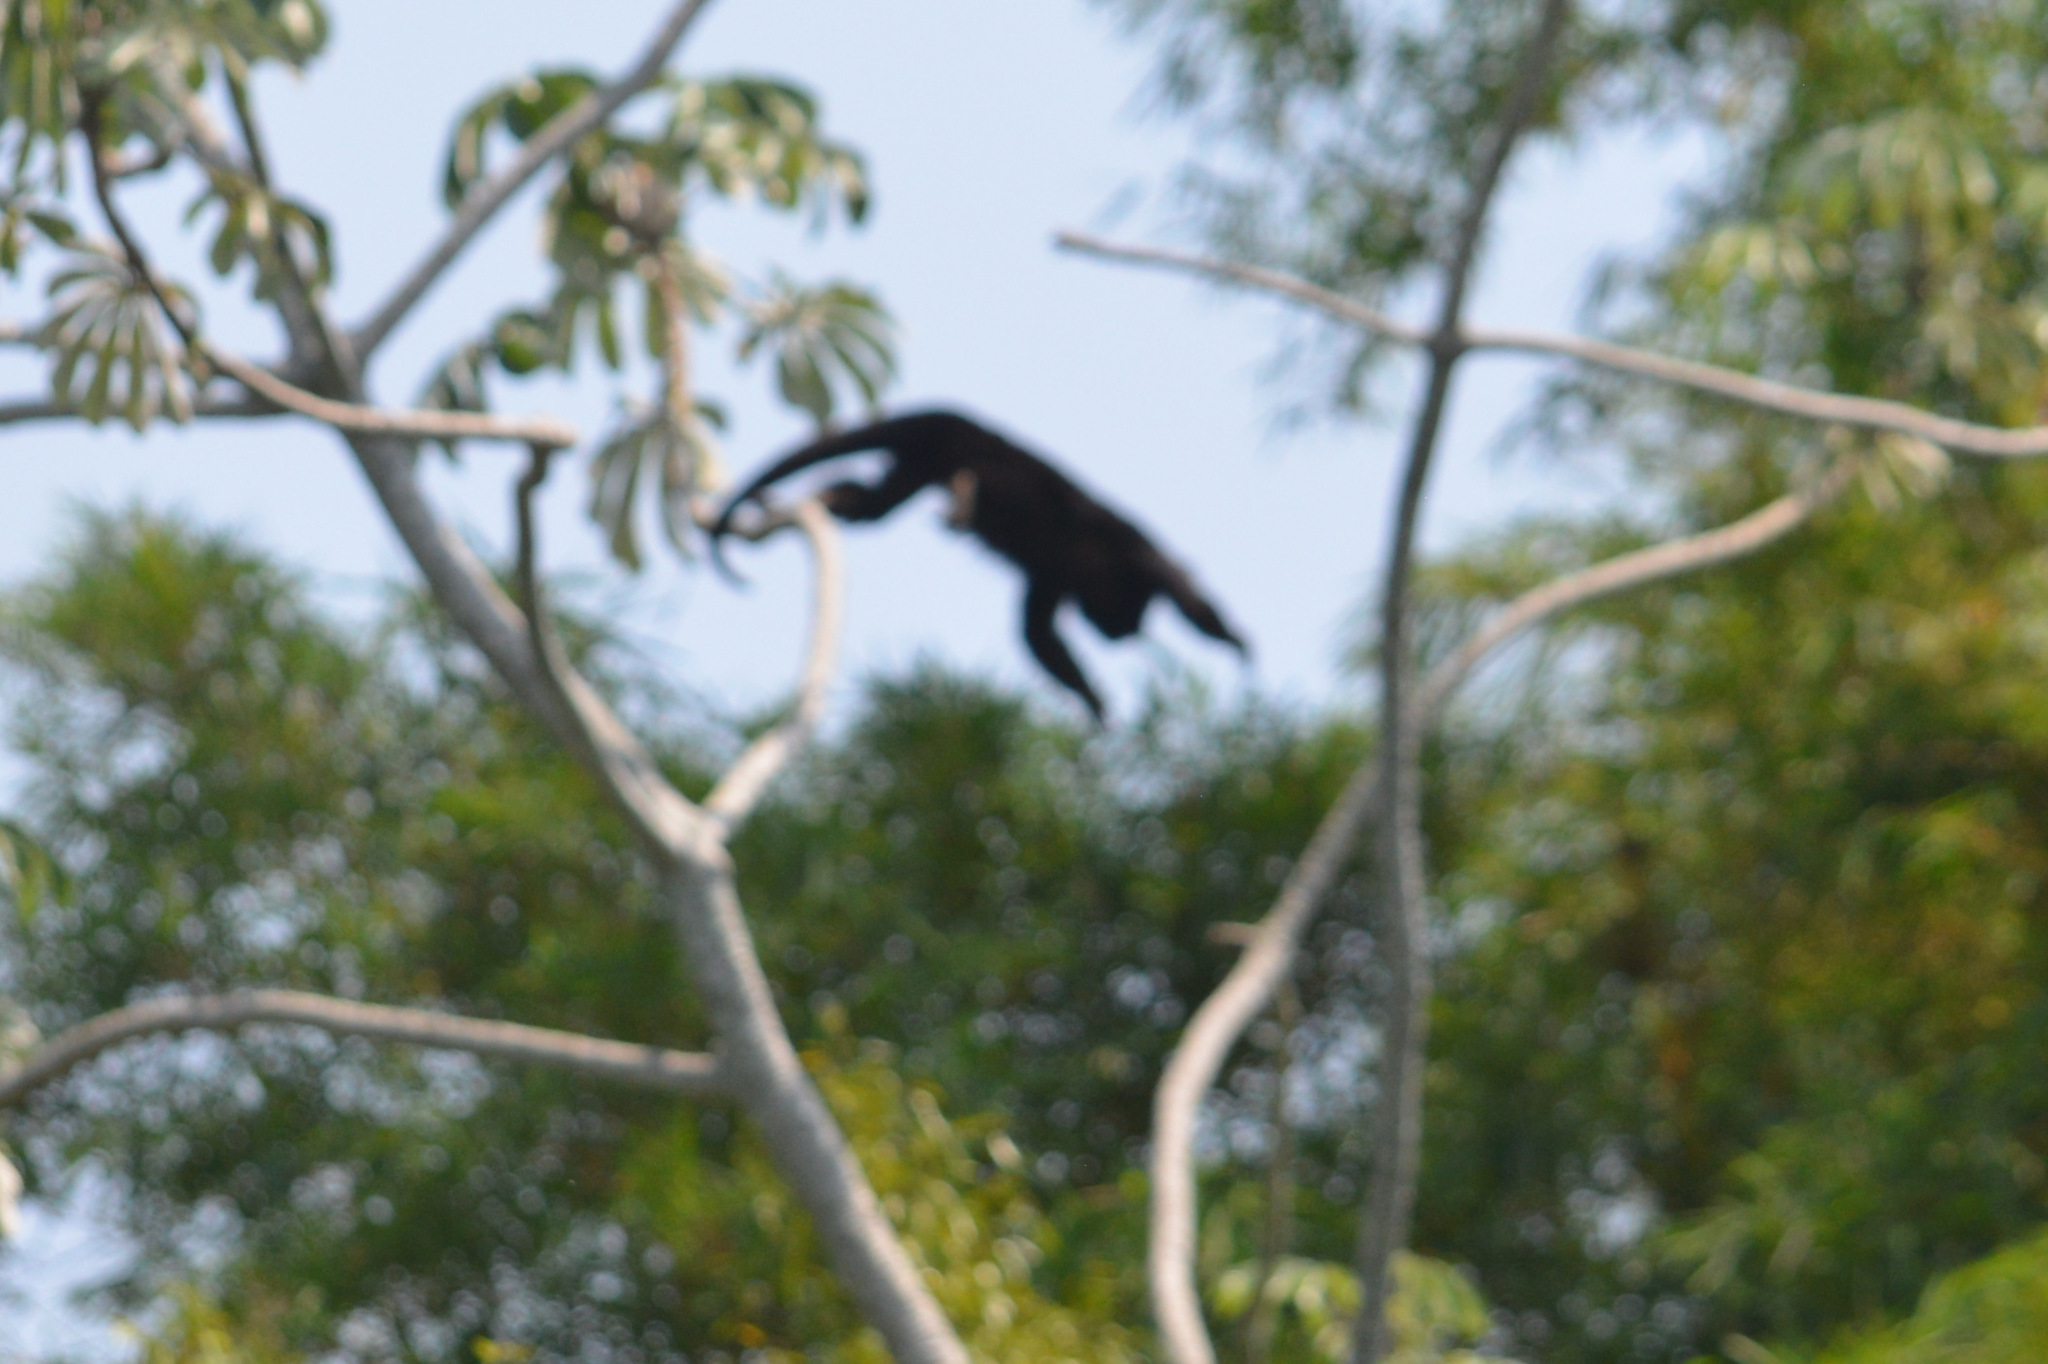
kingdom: Animalia
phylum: Chordata
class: Mammalia
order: Primates
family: Atelidae
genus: Alouatta
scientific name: Alouatta caraya
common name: Black howler
